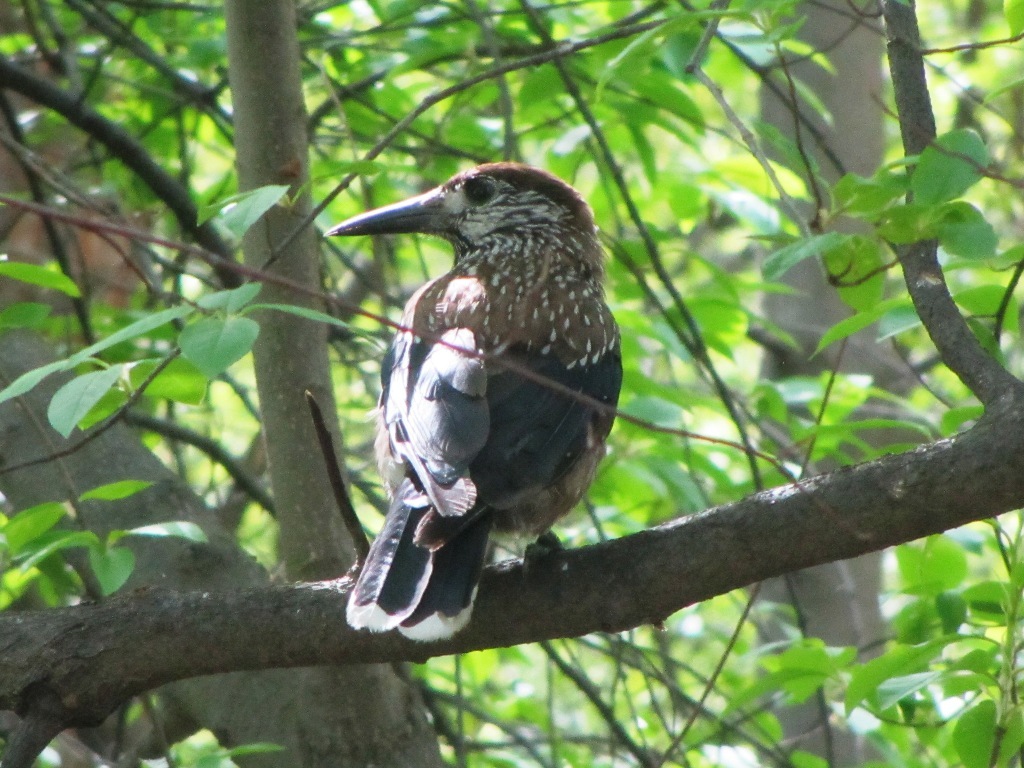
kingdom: Animalia
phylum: Chordata
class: Aves
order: Passeriformes
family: Corvidae
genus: Nucifraga
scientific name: Nucifraga caryocatactes
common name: Spotted nutcracker
